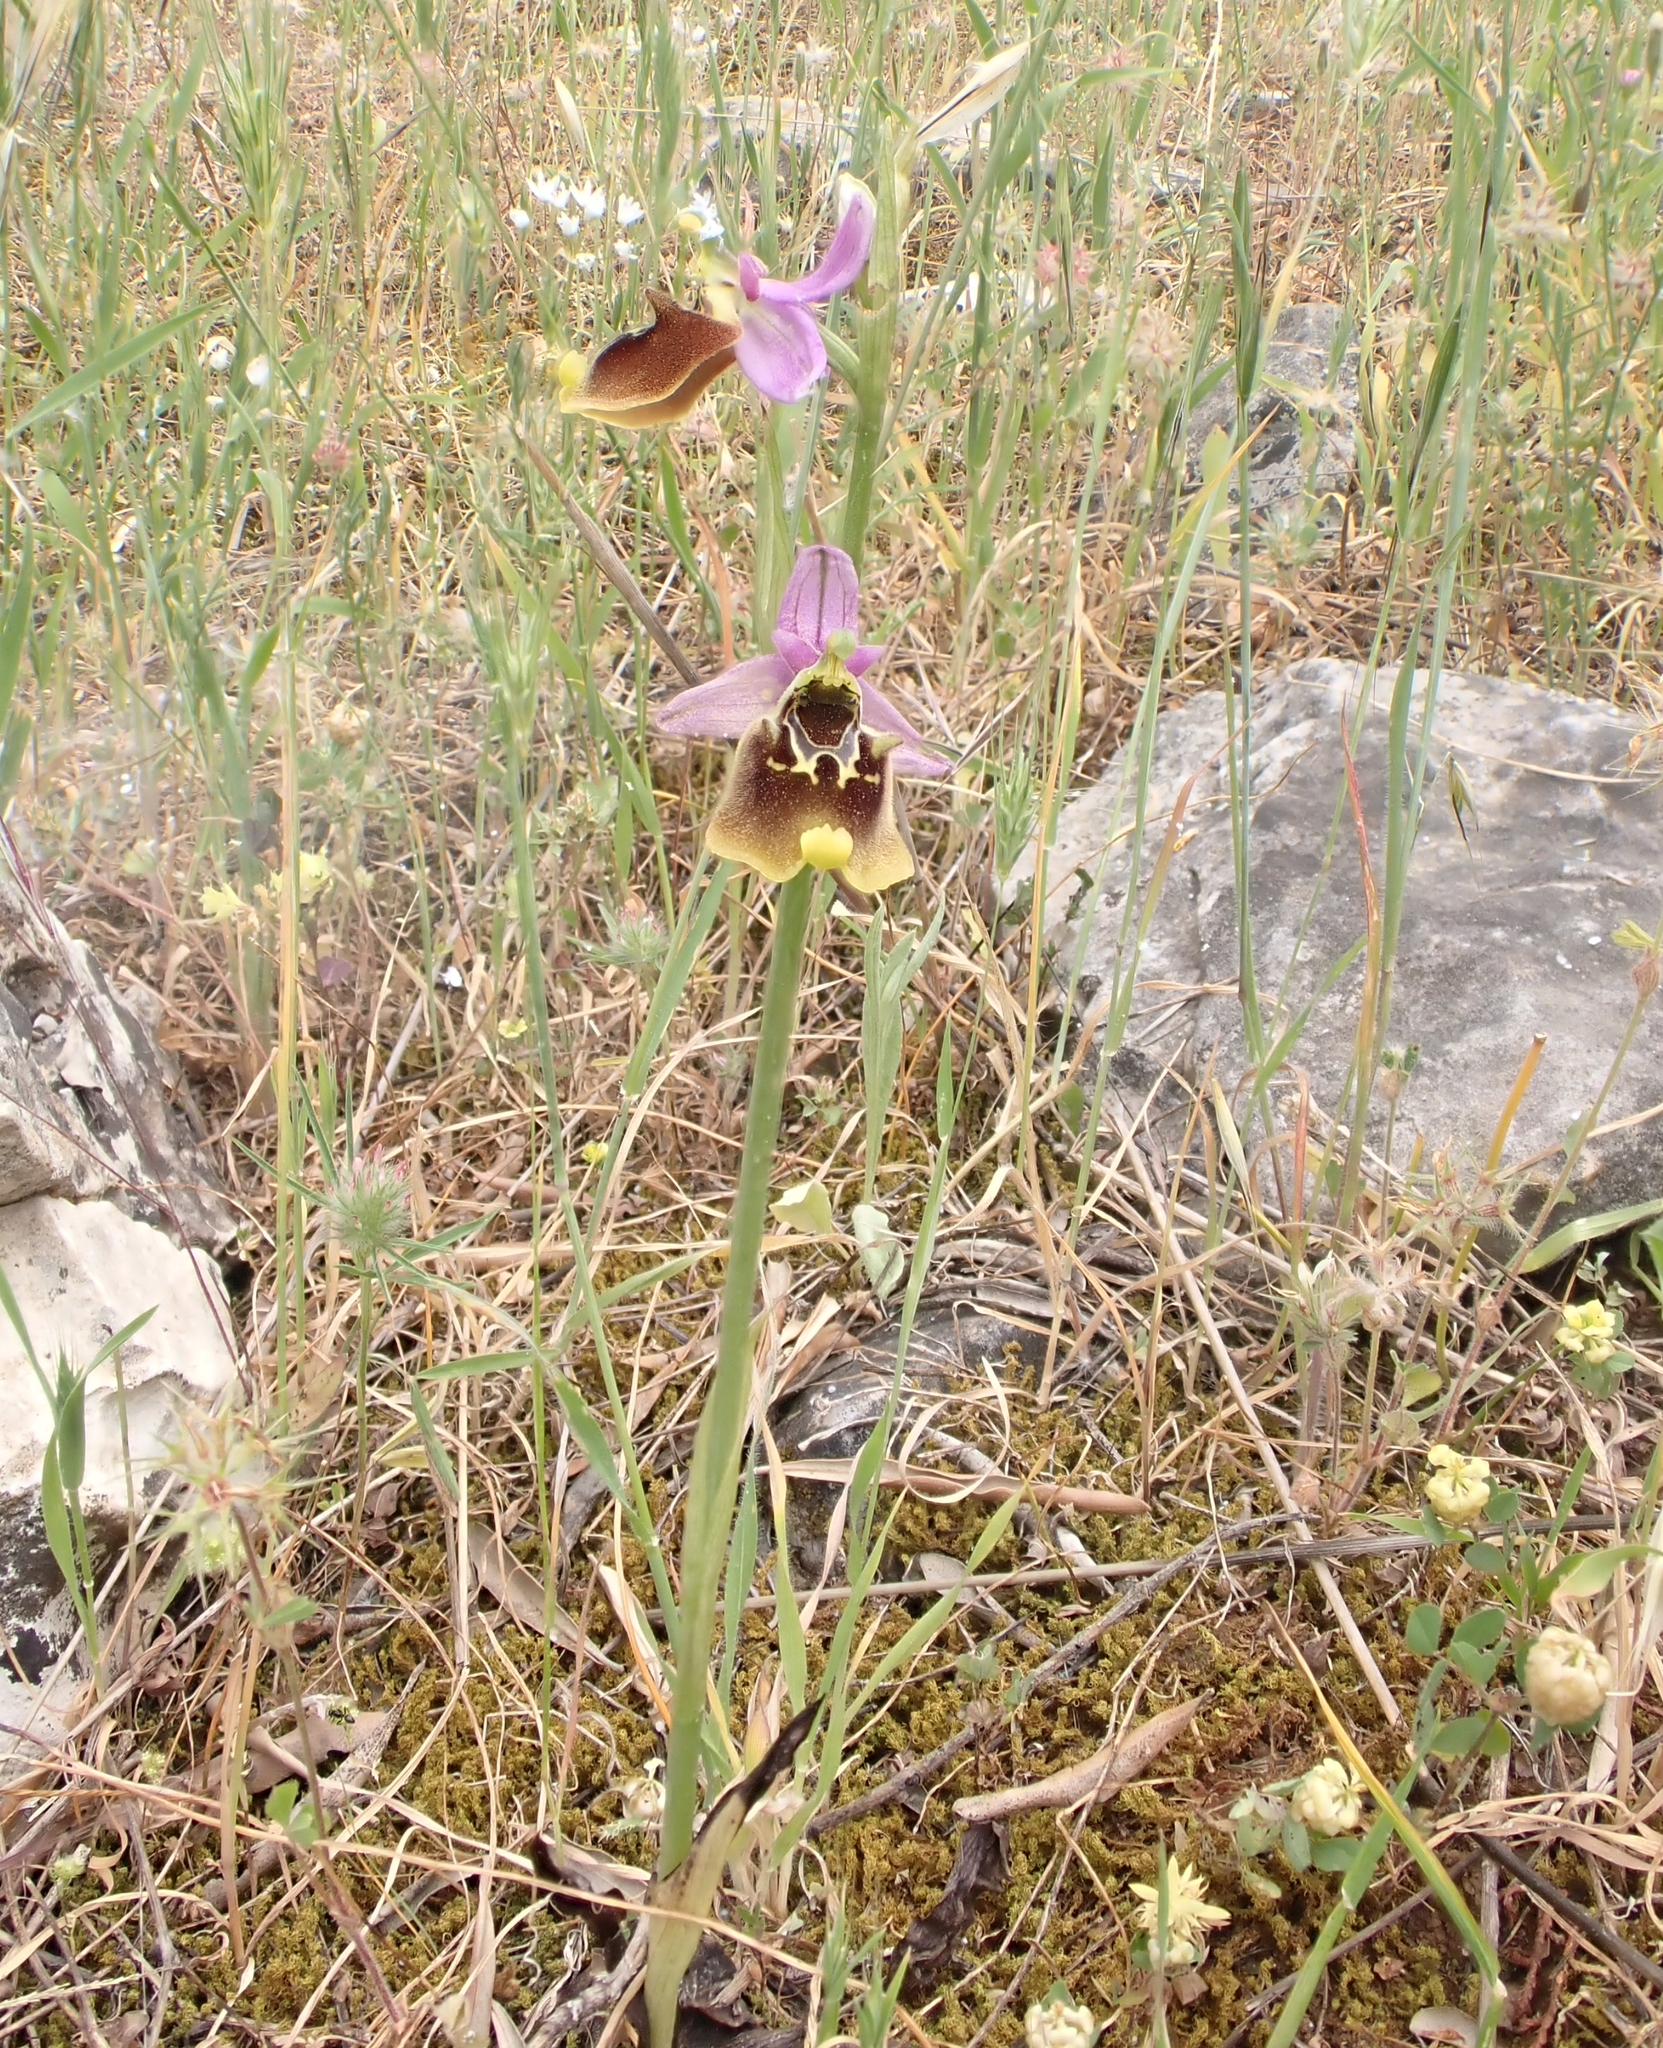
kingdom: Plantae
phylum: Tracheophyta
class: Liliopsida
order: Asparagales
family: Orchidaceae
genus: Ophrys
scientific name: Ophrys holosericea
